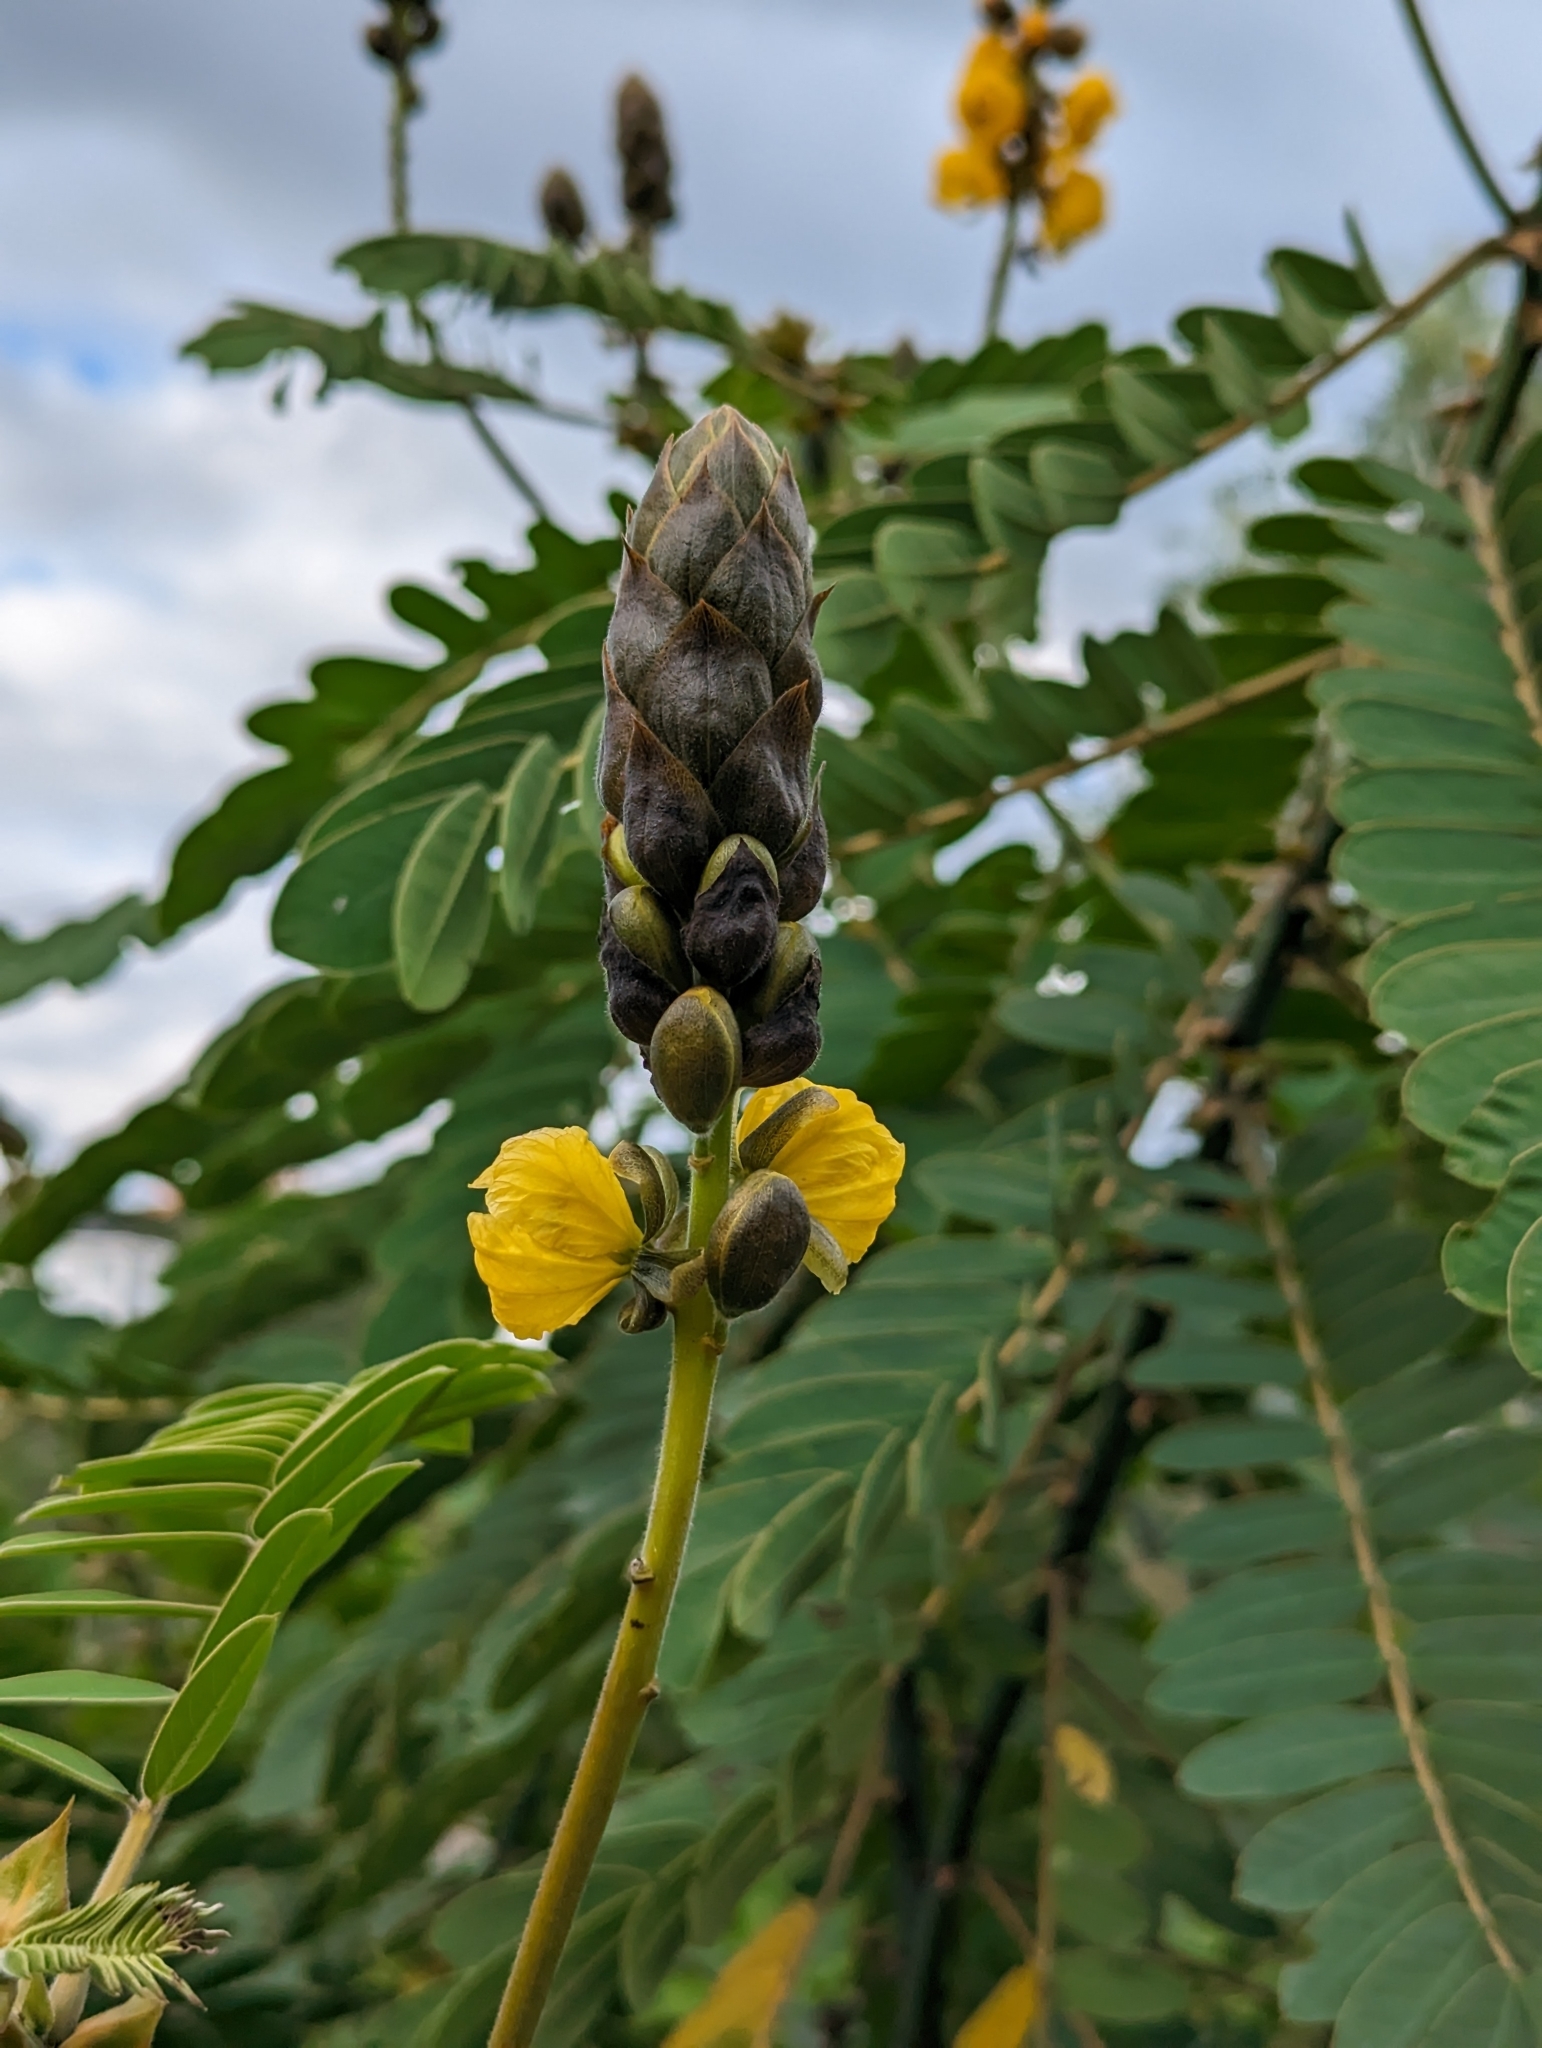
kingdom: Plantae
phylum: Tracheophyta
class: Magnoliopsida
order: Fabales
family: Fabaceae
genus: Senna
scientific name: Senna didymobotrya
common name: African senna
